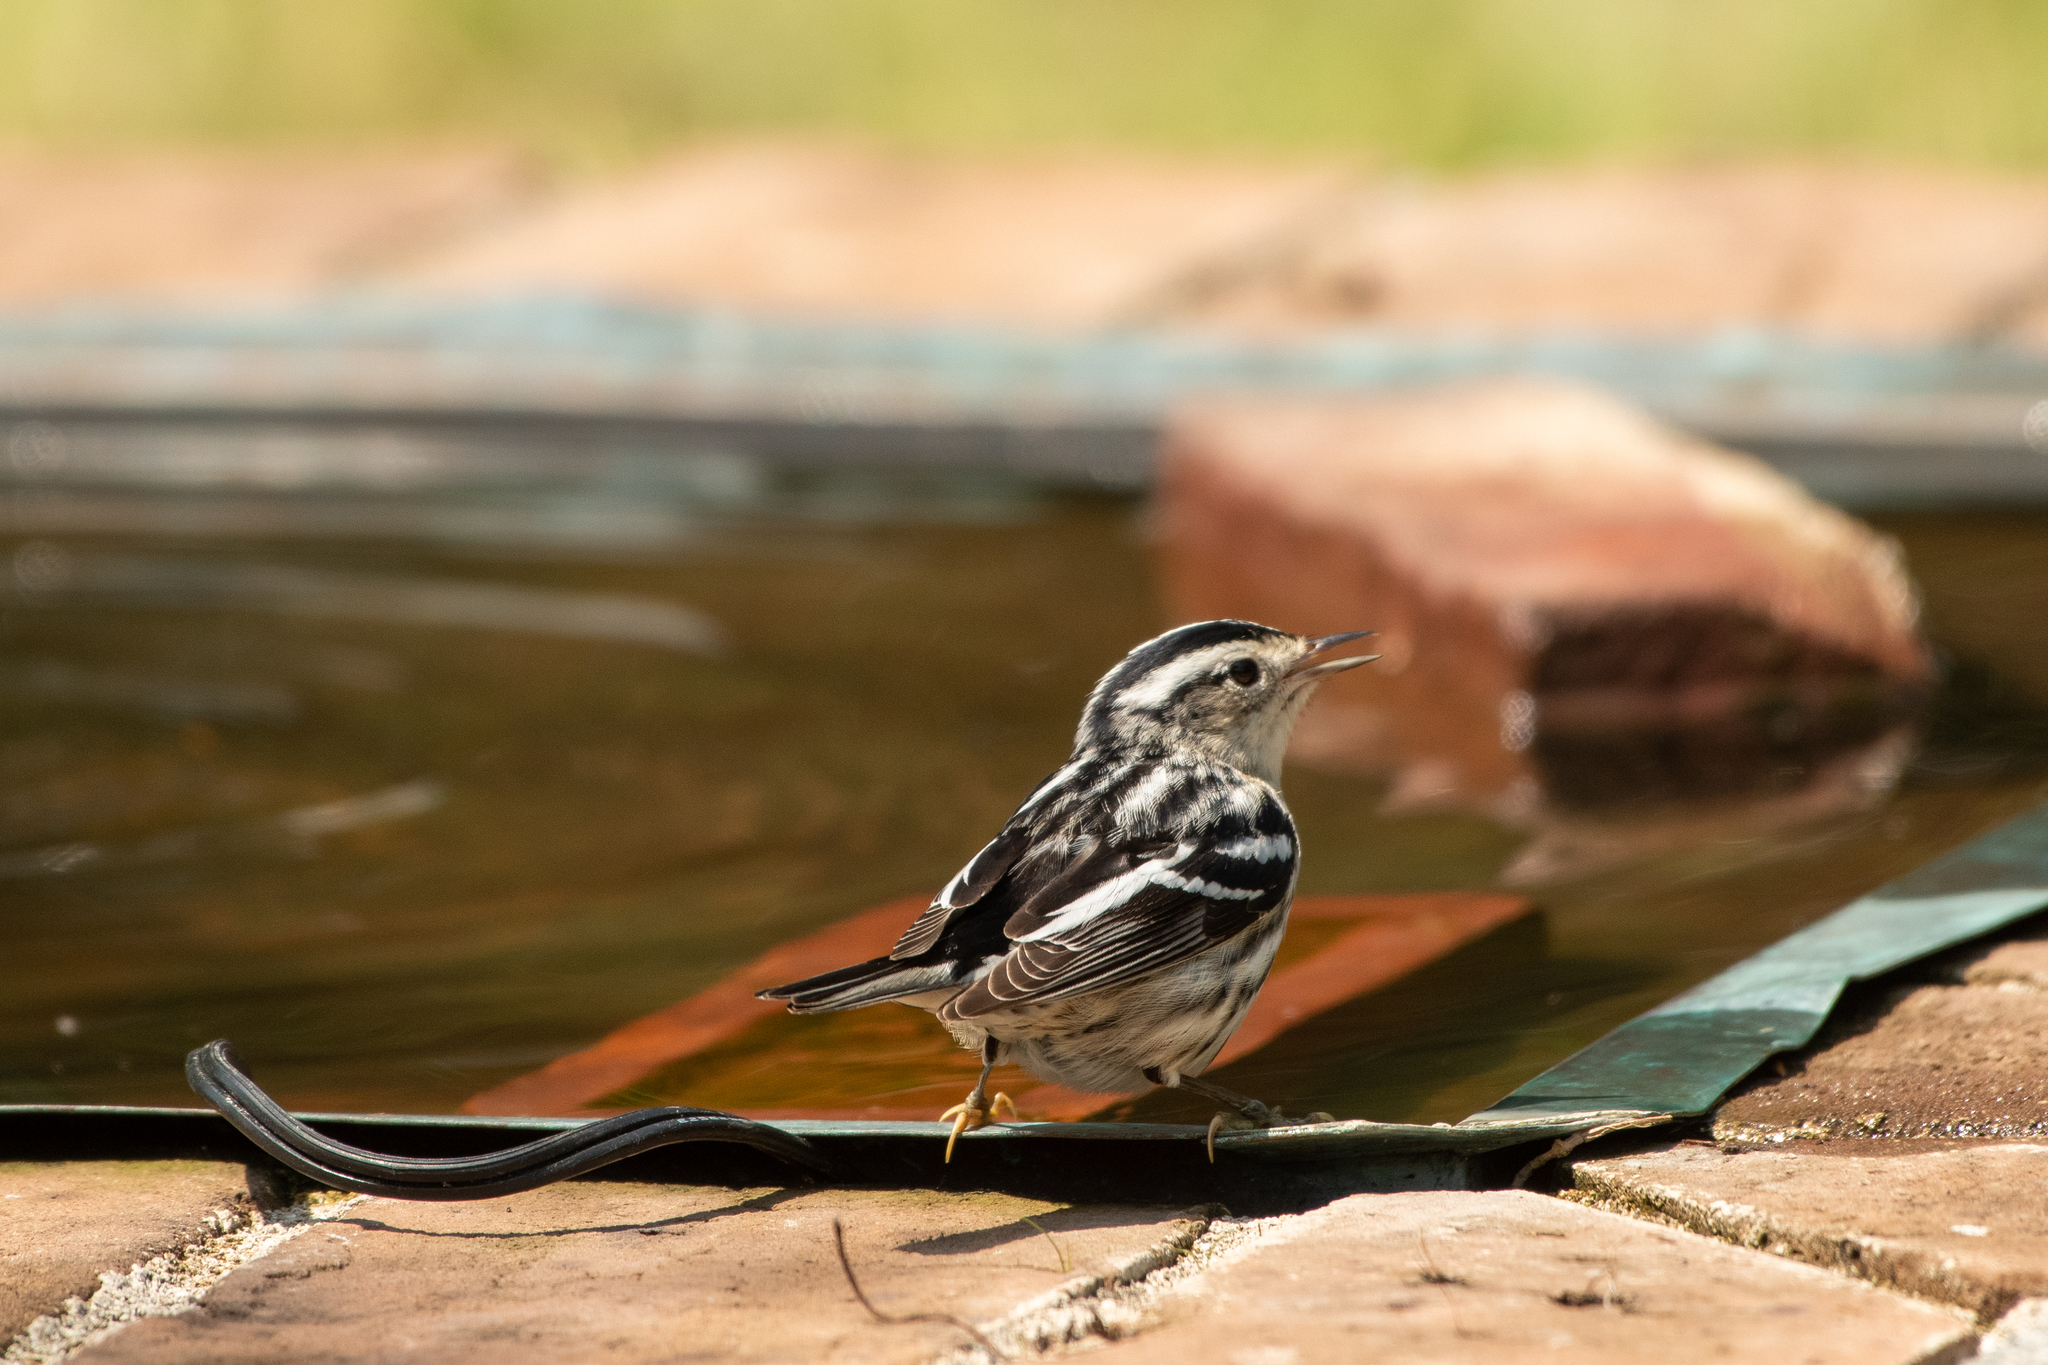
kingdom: Animalia
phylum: Chordata
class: Aves
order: Passeriformes
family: Parulidae
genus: Mniotilta
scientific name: Mniotilta varia
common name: Black-and-white warbler
